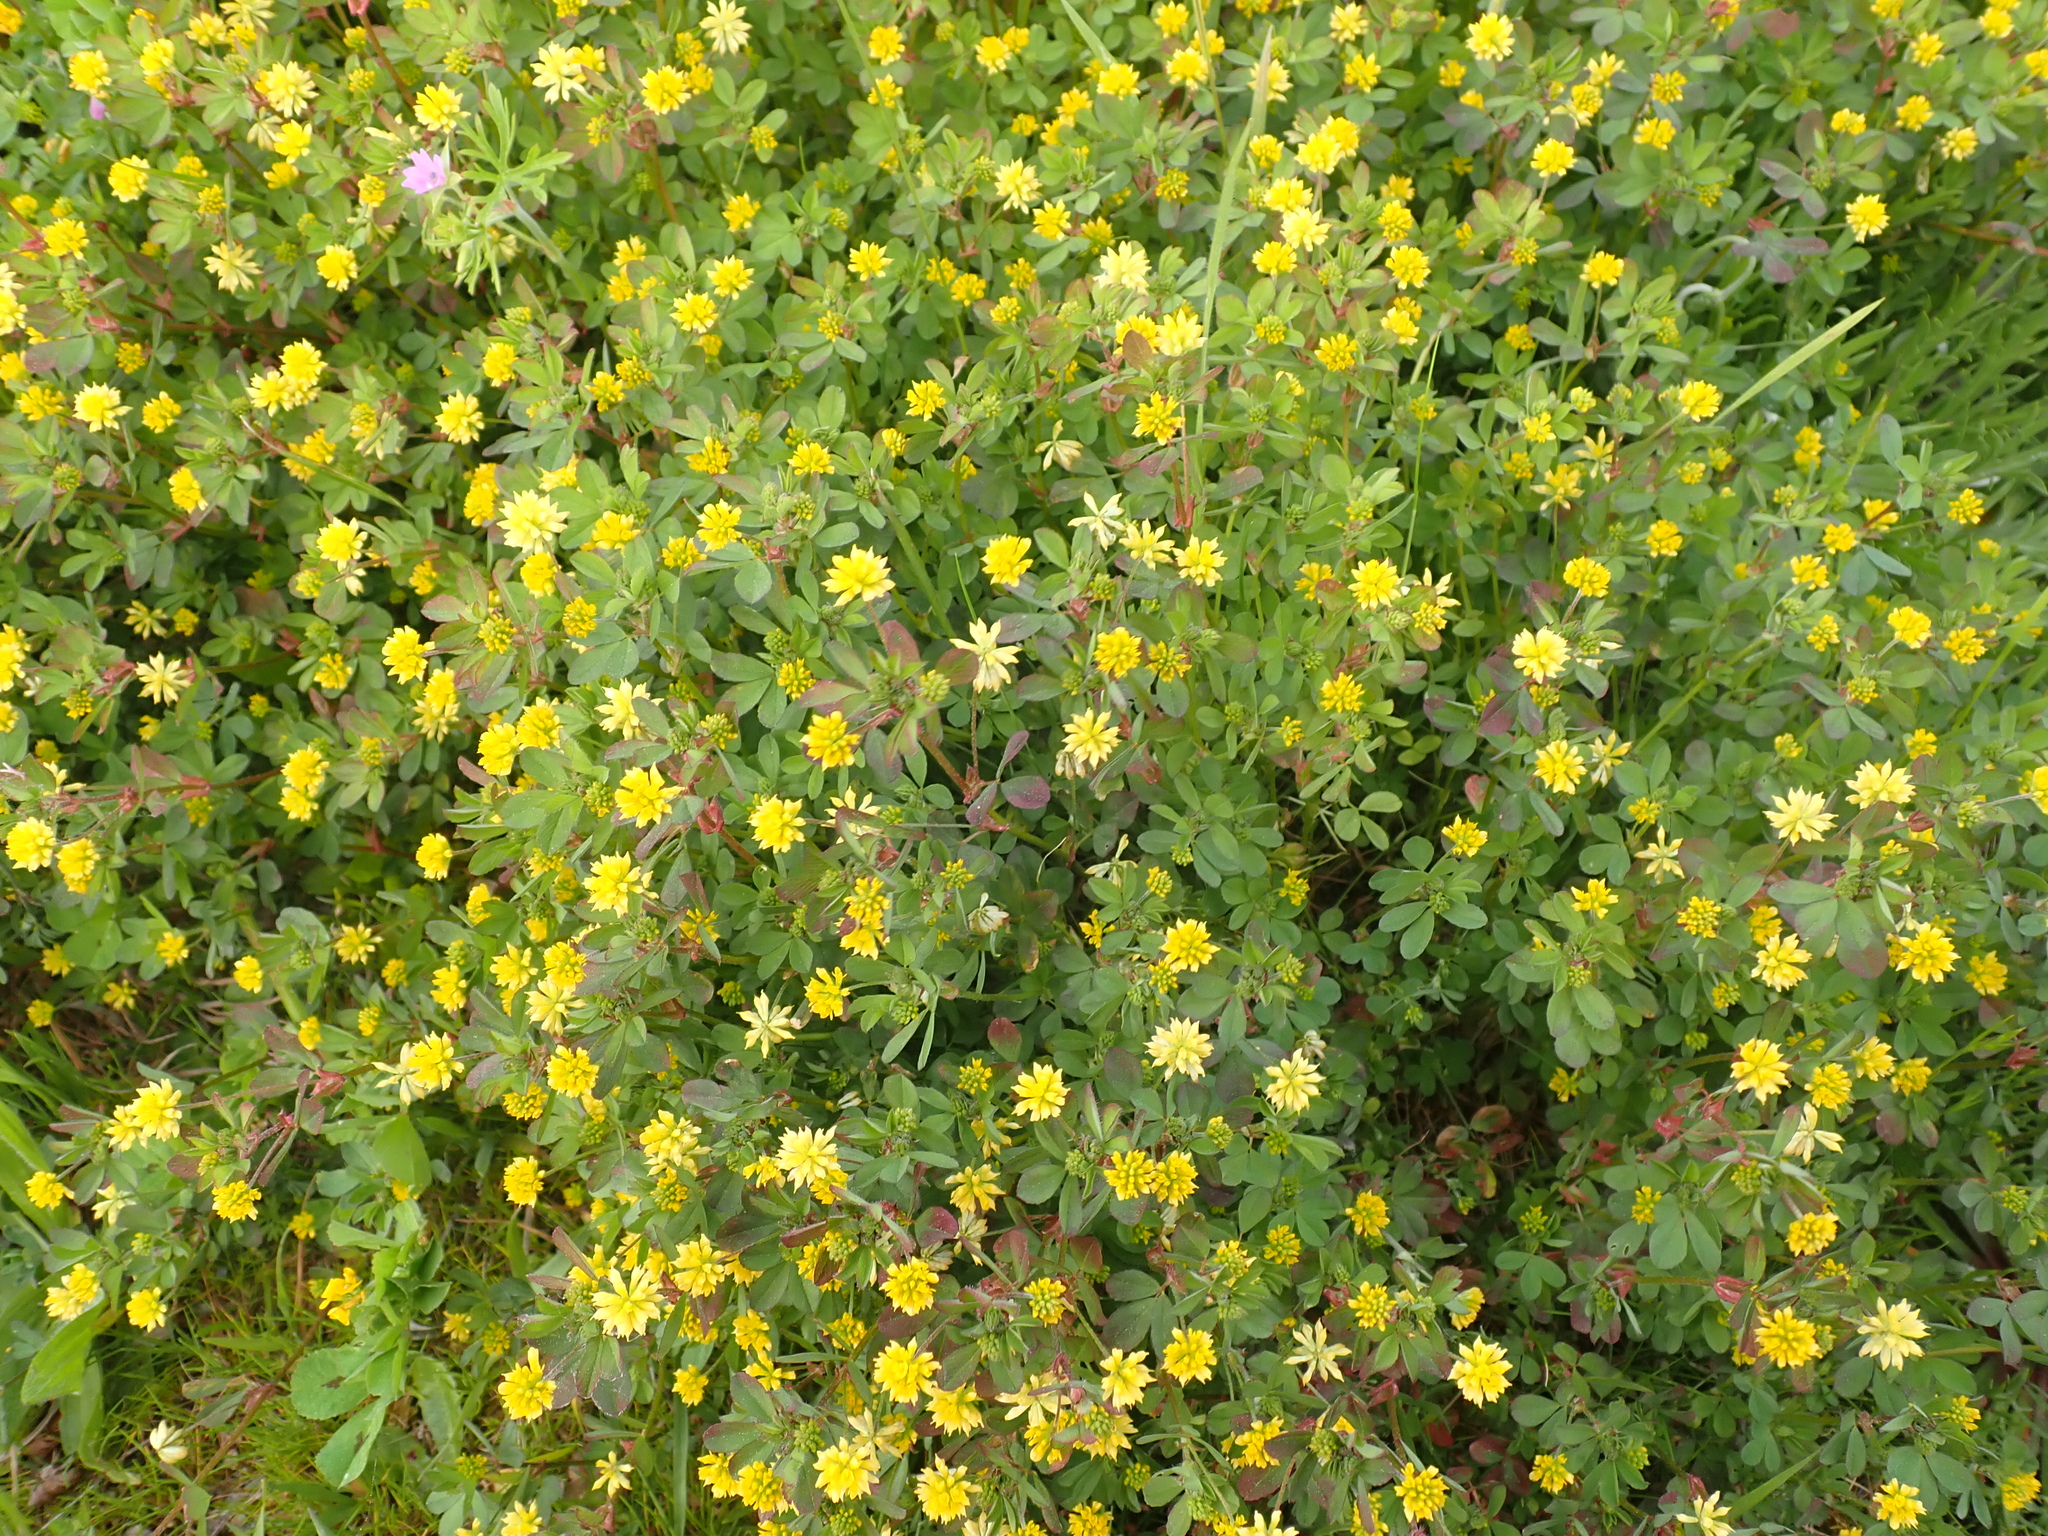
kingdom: Plantae
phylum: Tracheophyta
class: Magnoliopsida
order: Fabales
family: Fabaceae
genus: Trifolium
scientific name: Trifolium dubium
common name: Suckling clover
